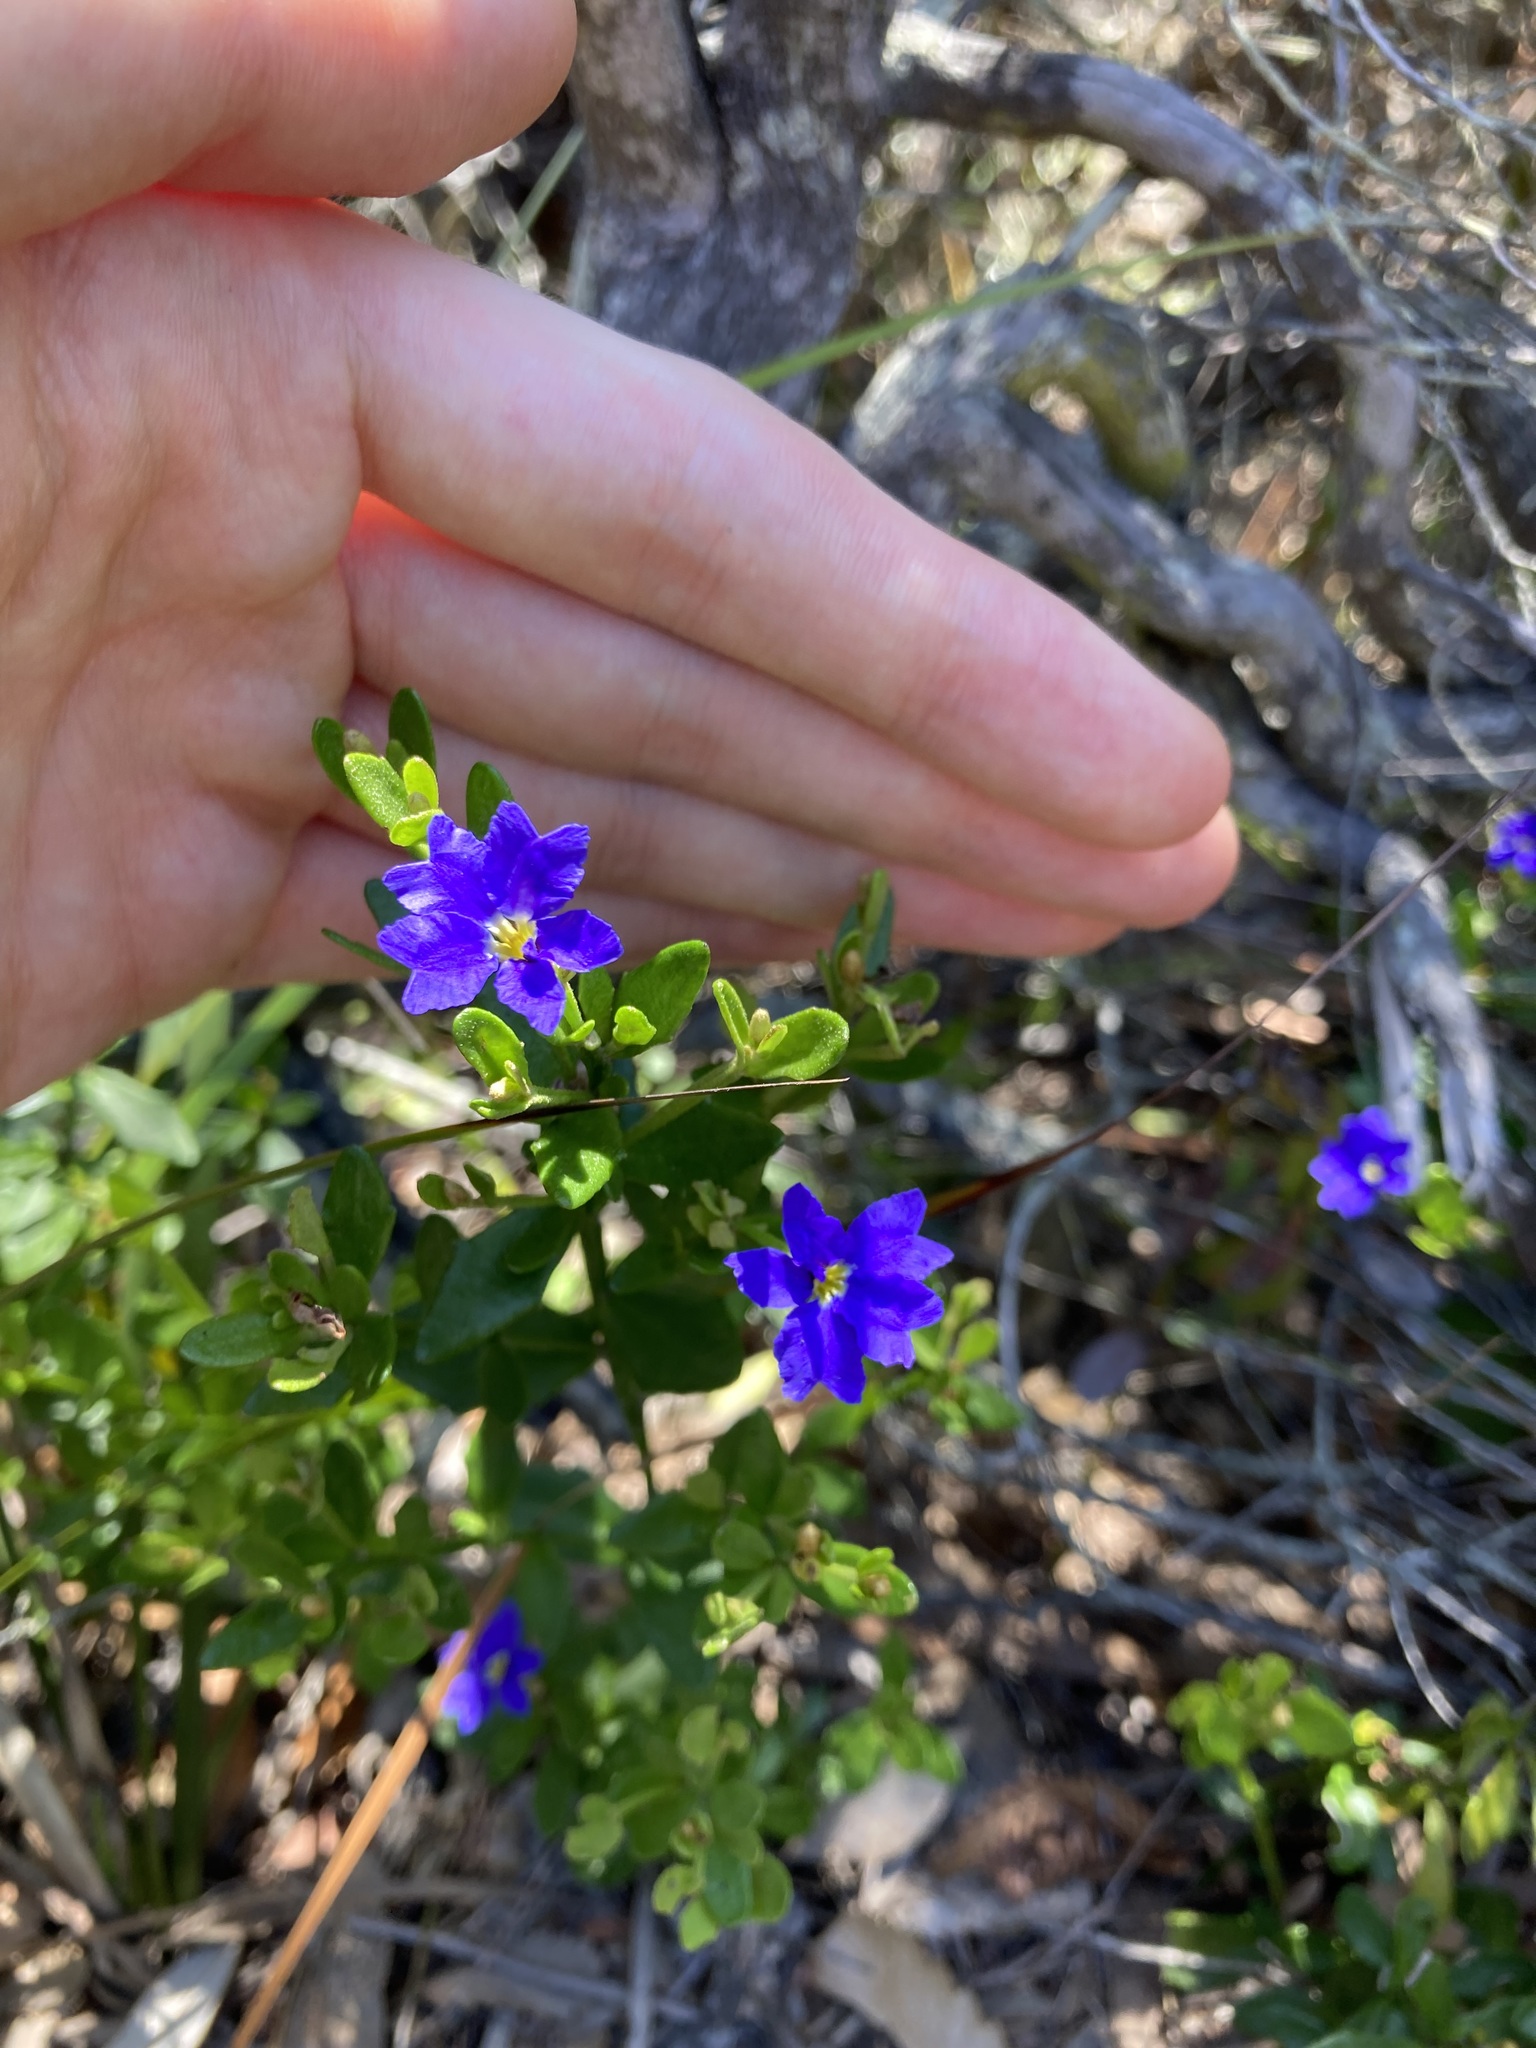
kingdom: Plantae
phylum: Tracheophyta
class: Magnoliopsida
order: Asterales
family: Goodeniaceae
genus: Dampiera
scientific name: Dampiera stricta
